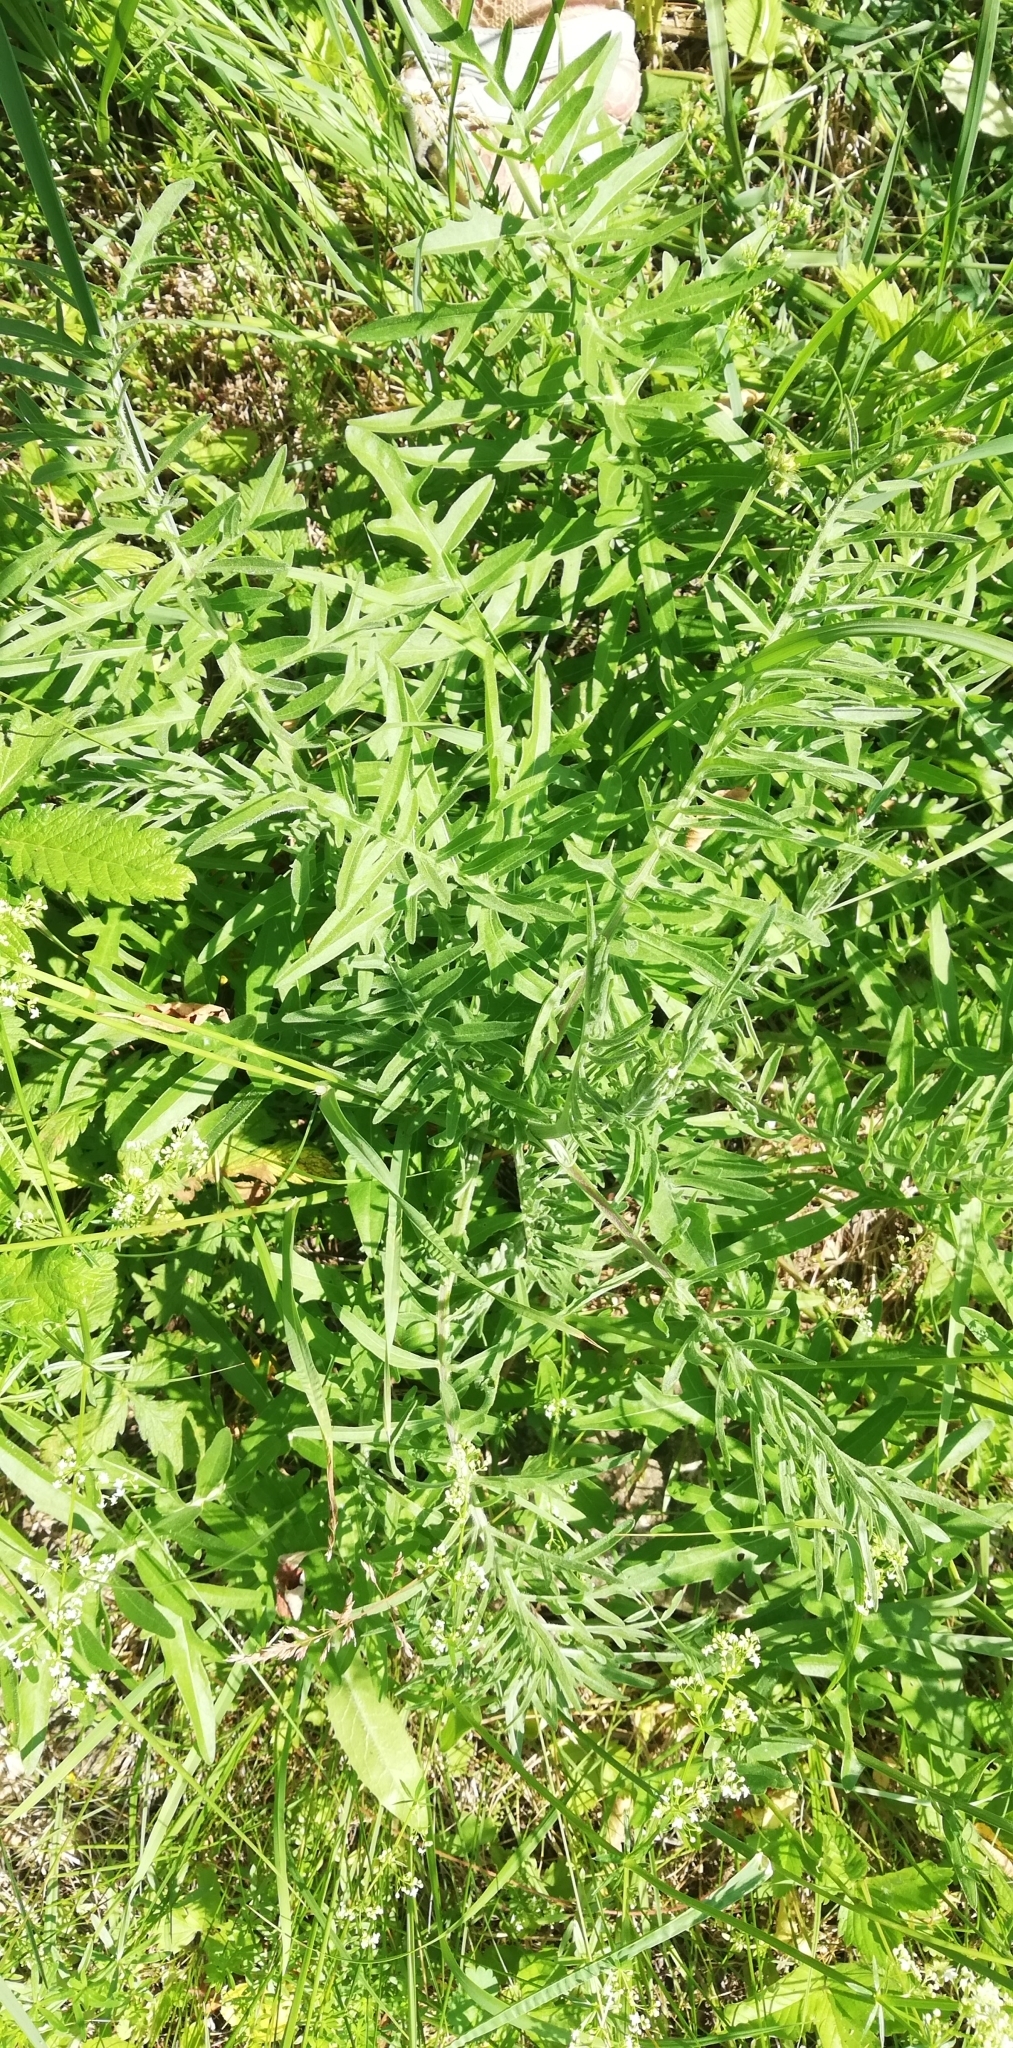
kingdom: Plantae
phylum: Tracheophyta
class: Magnoliopsida
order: Asterales
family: Asteraceae
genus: Centaurea
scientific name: Centaurea scabiosa
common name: Greater knapweed
